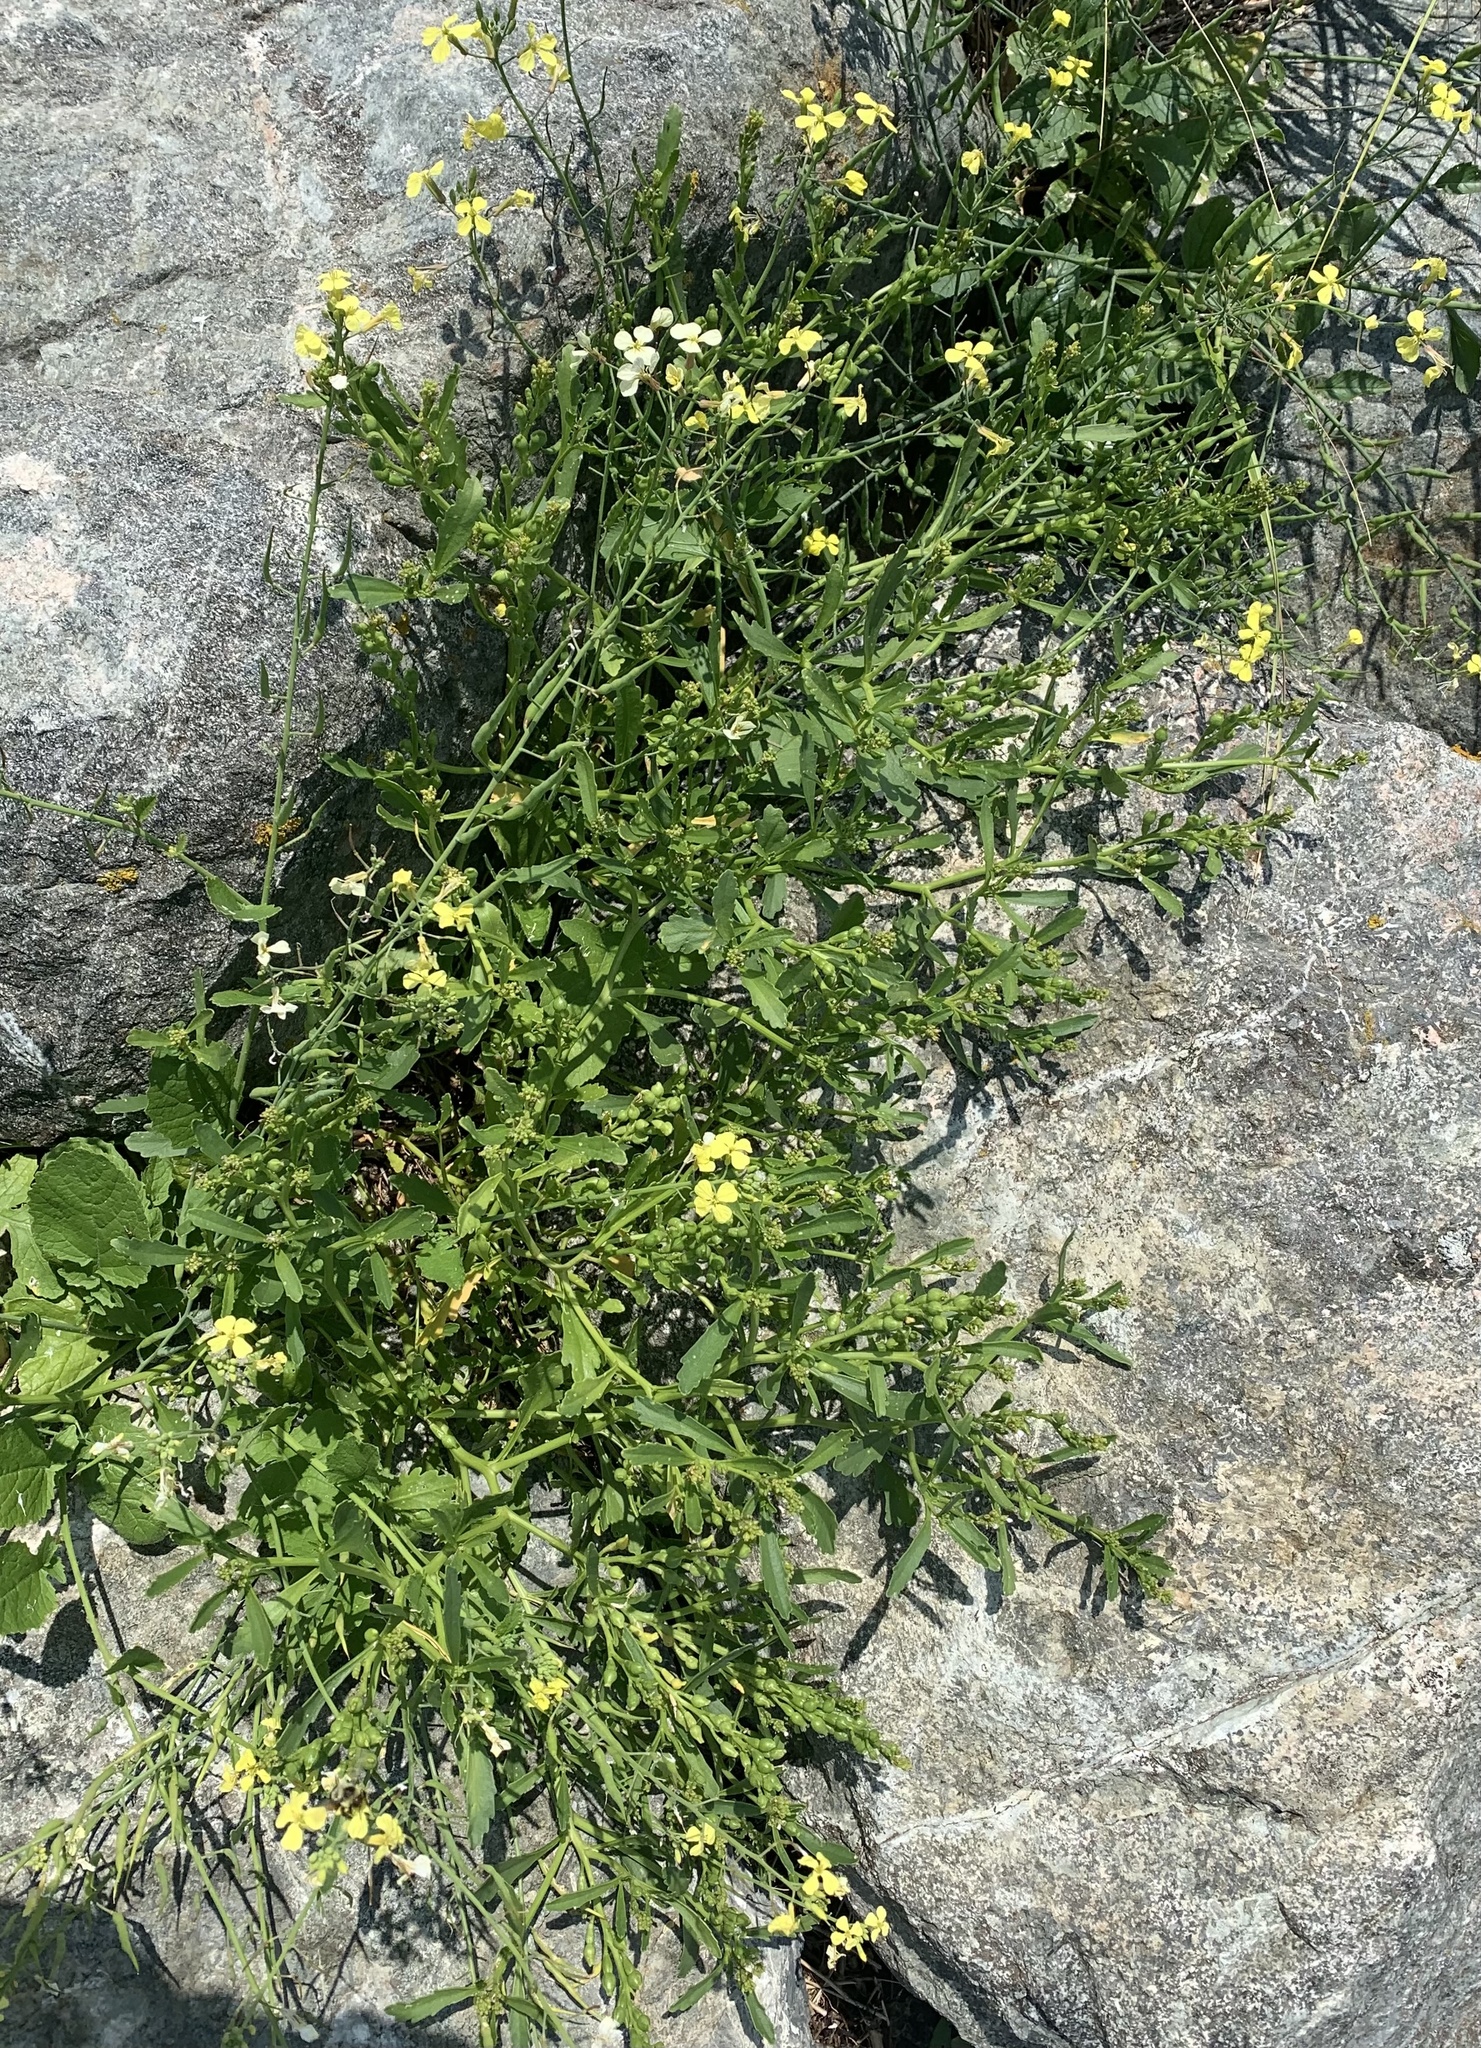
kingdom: Plantae
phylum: Tracheophyta
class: Magnoliopsida
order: Brassicales
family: Brassicaceae
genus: Raphanus
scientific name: Raphanus raphanistrum
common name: Wild radish
